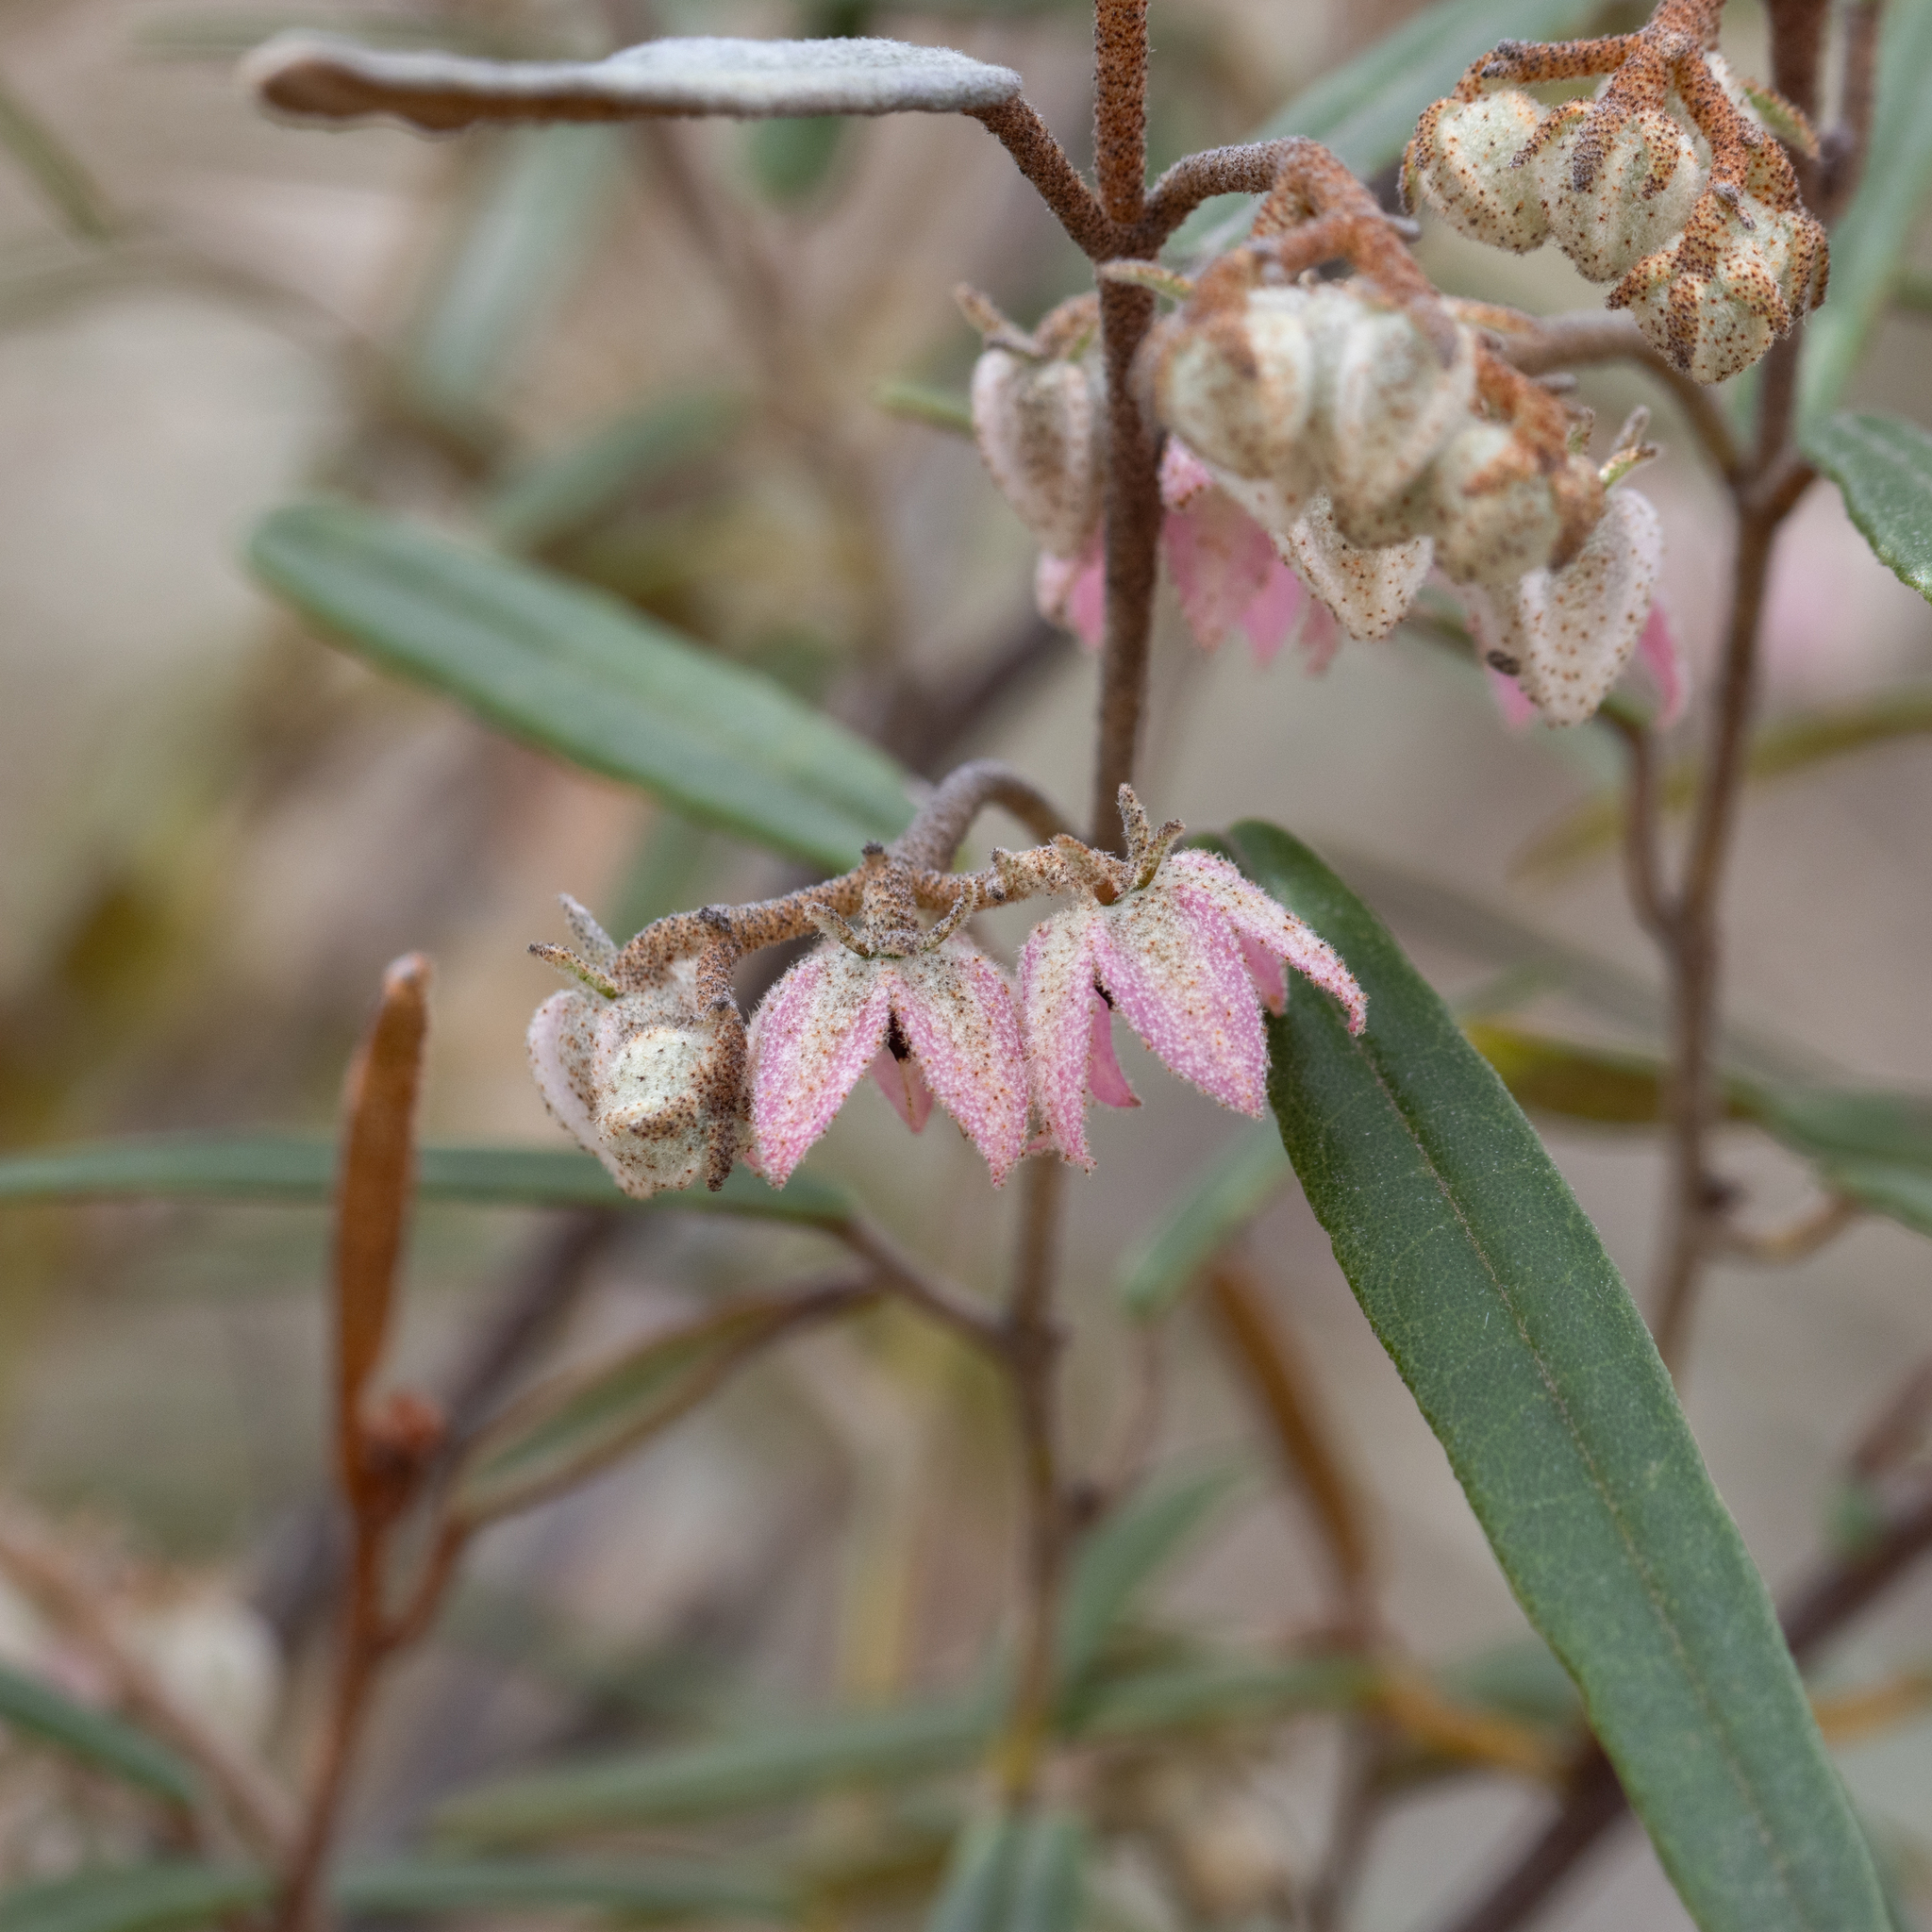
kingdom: Plantae
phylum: Tracheophyta
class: Magnoliopsida
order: Malvales
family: Malvaceae
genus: Lasiopetalum
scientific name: Lasiopetalum behrii
